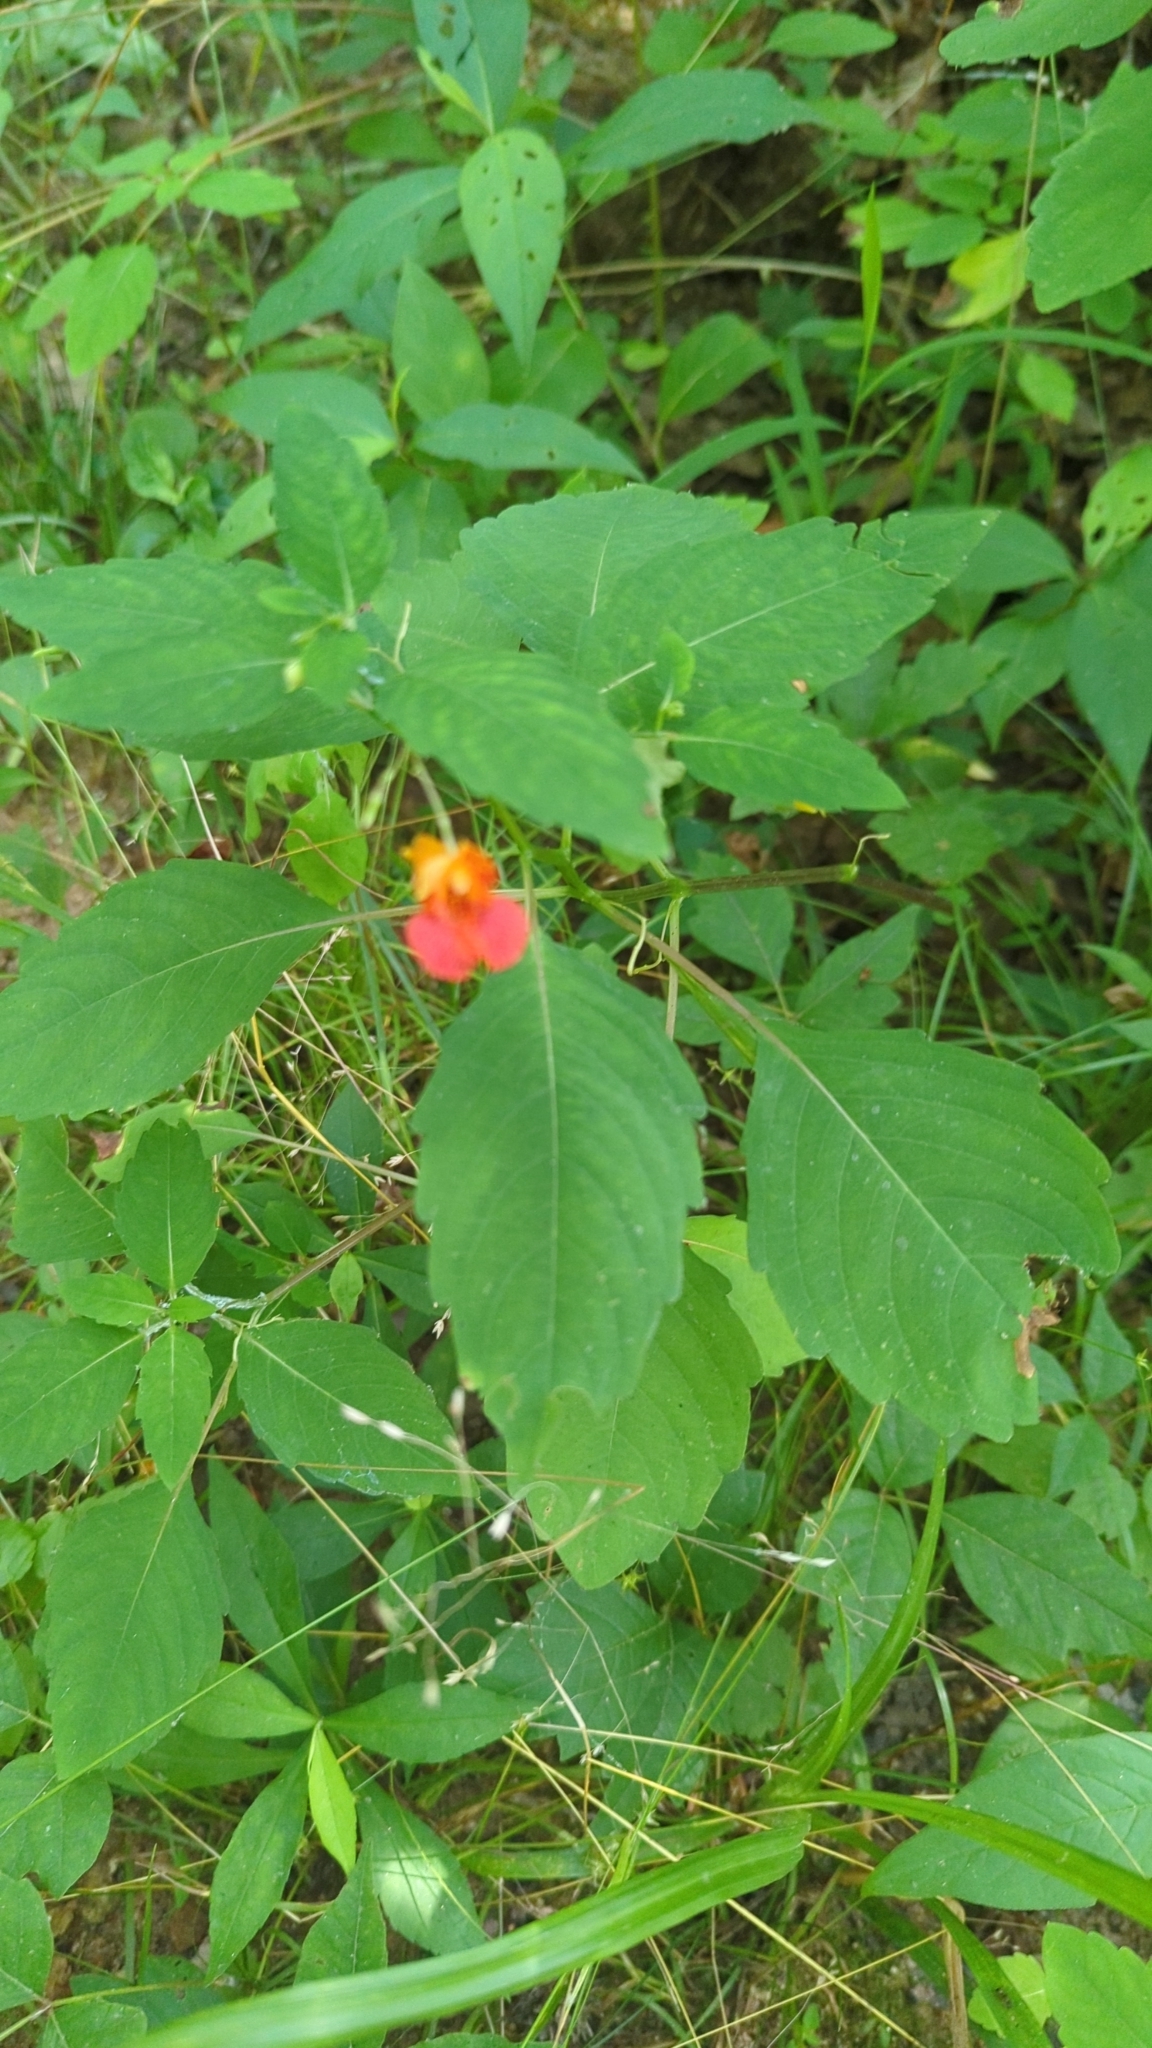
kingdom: Plantae
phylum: Tracheophyta
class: Magnoliopsida
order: Ericales
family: Balsaminaceae
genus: Impatiens
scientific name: Impatiens capensis
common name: Orange balsam
